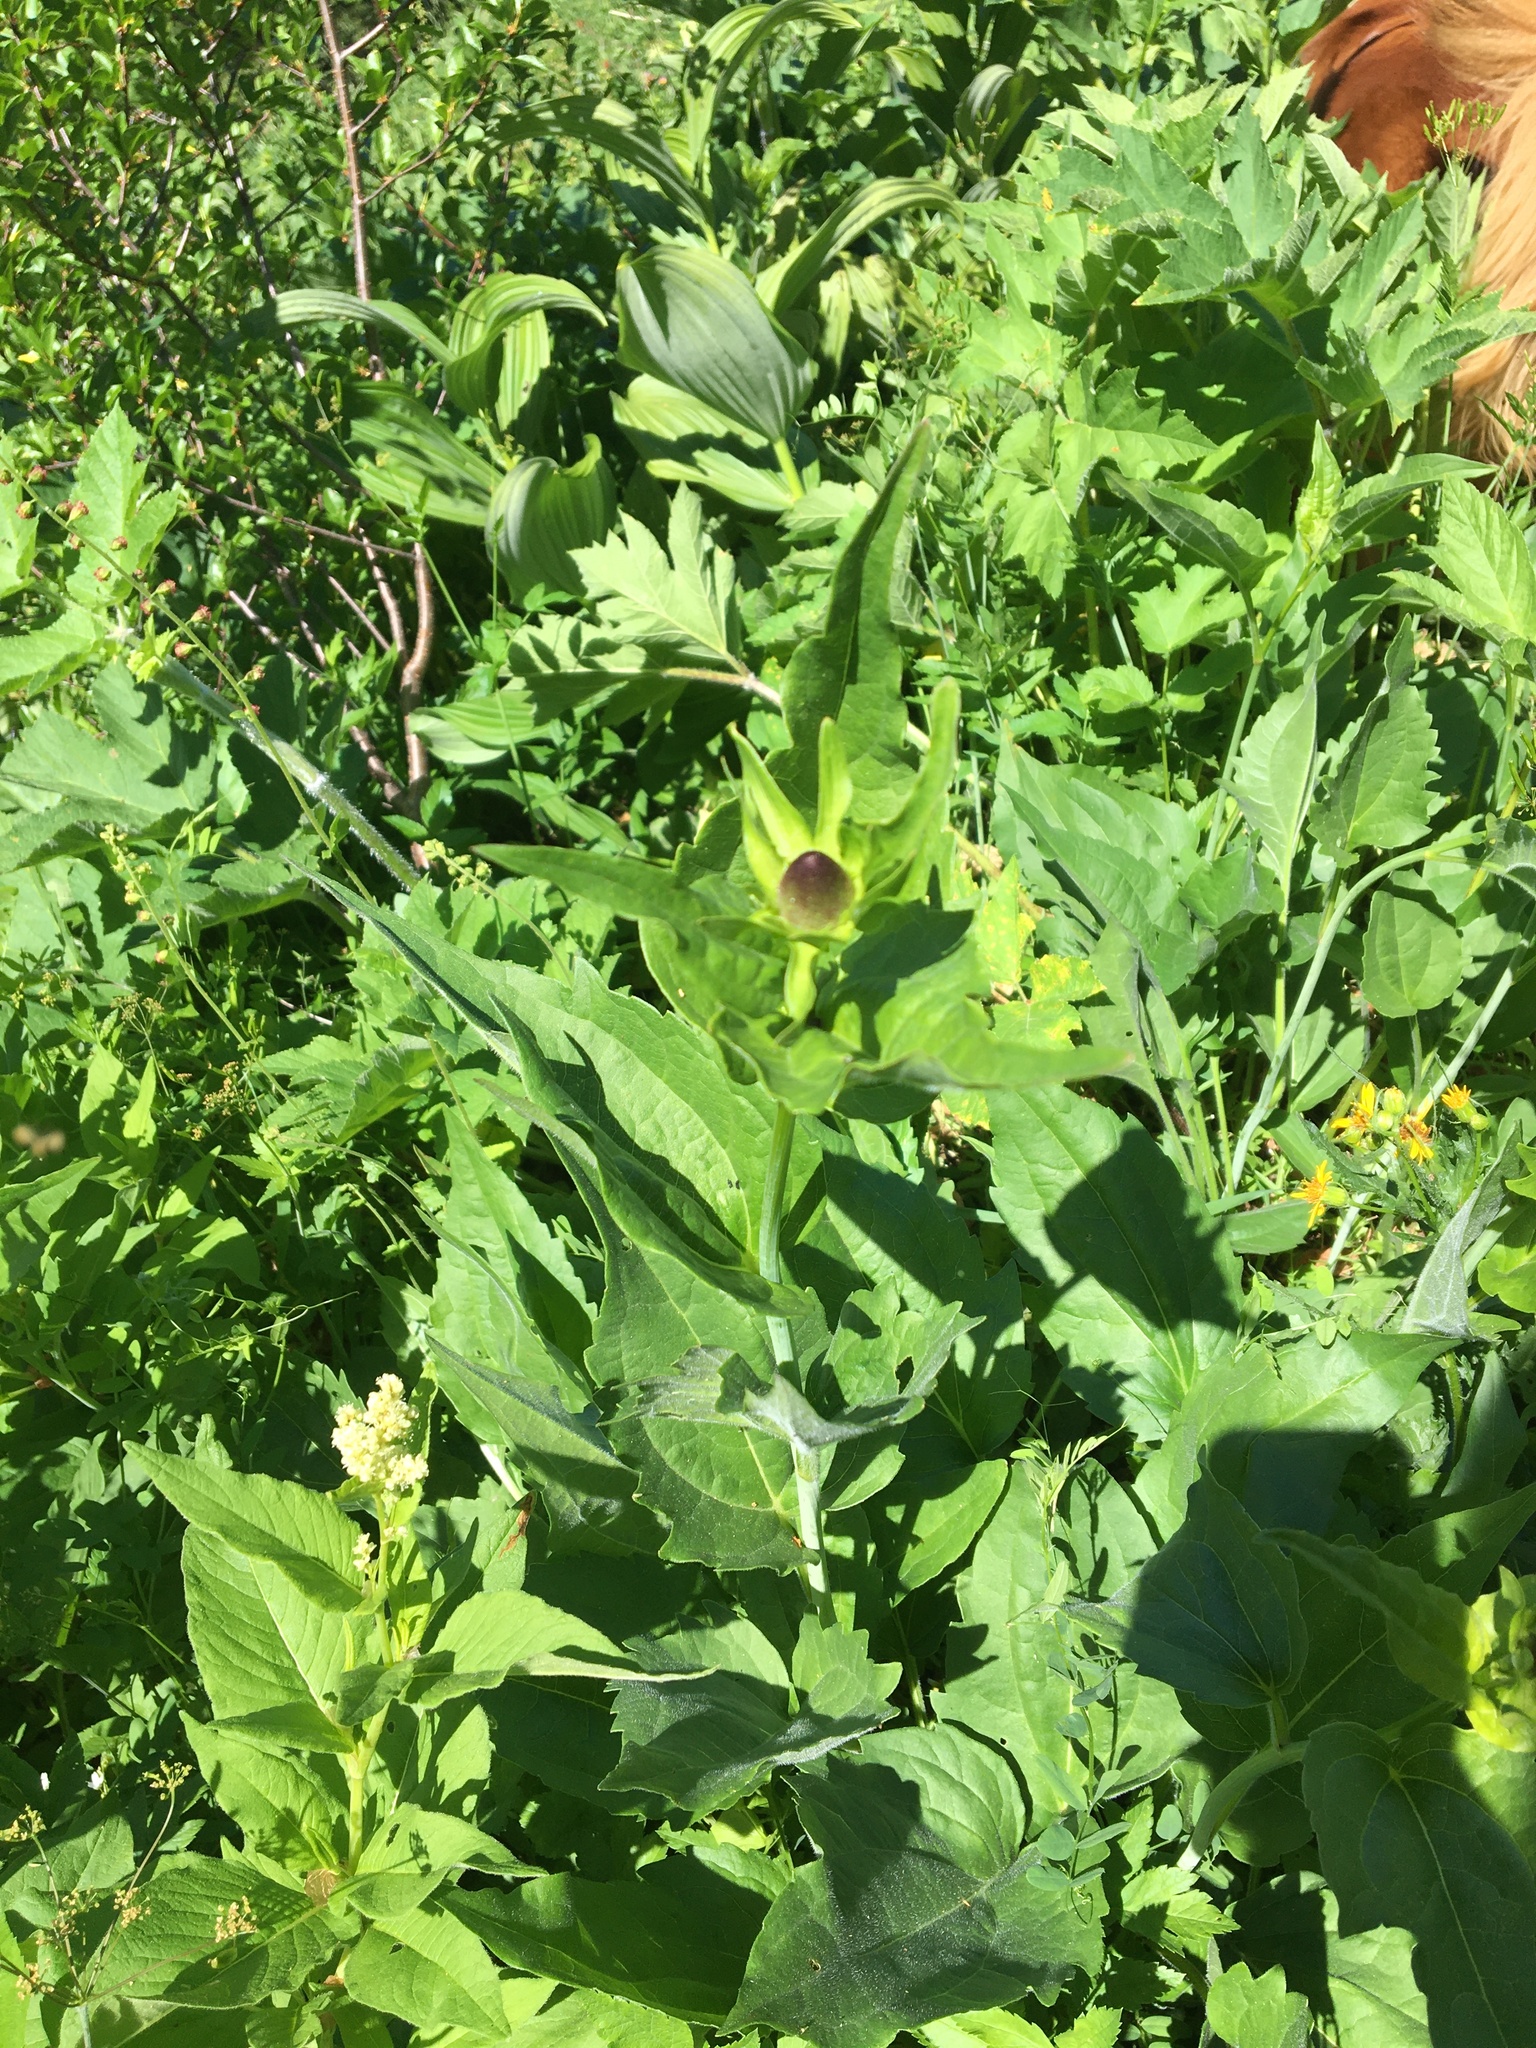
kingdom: Plantae
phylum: Tracheophyta
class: Magnoliopsida
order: Asterales
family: Asteraceae
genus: Rudbeckia
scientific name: Rudbeckia occidentalis
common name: Western coneflower
